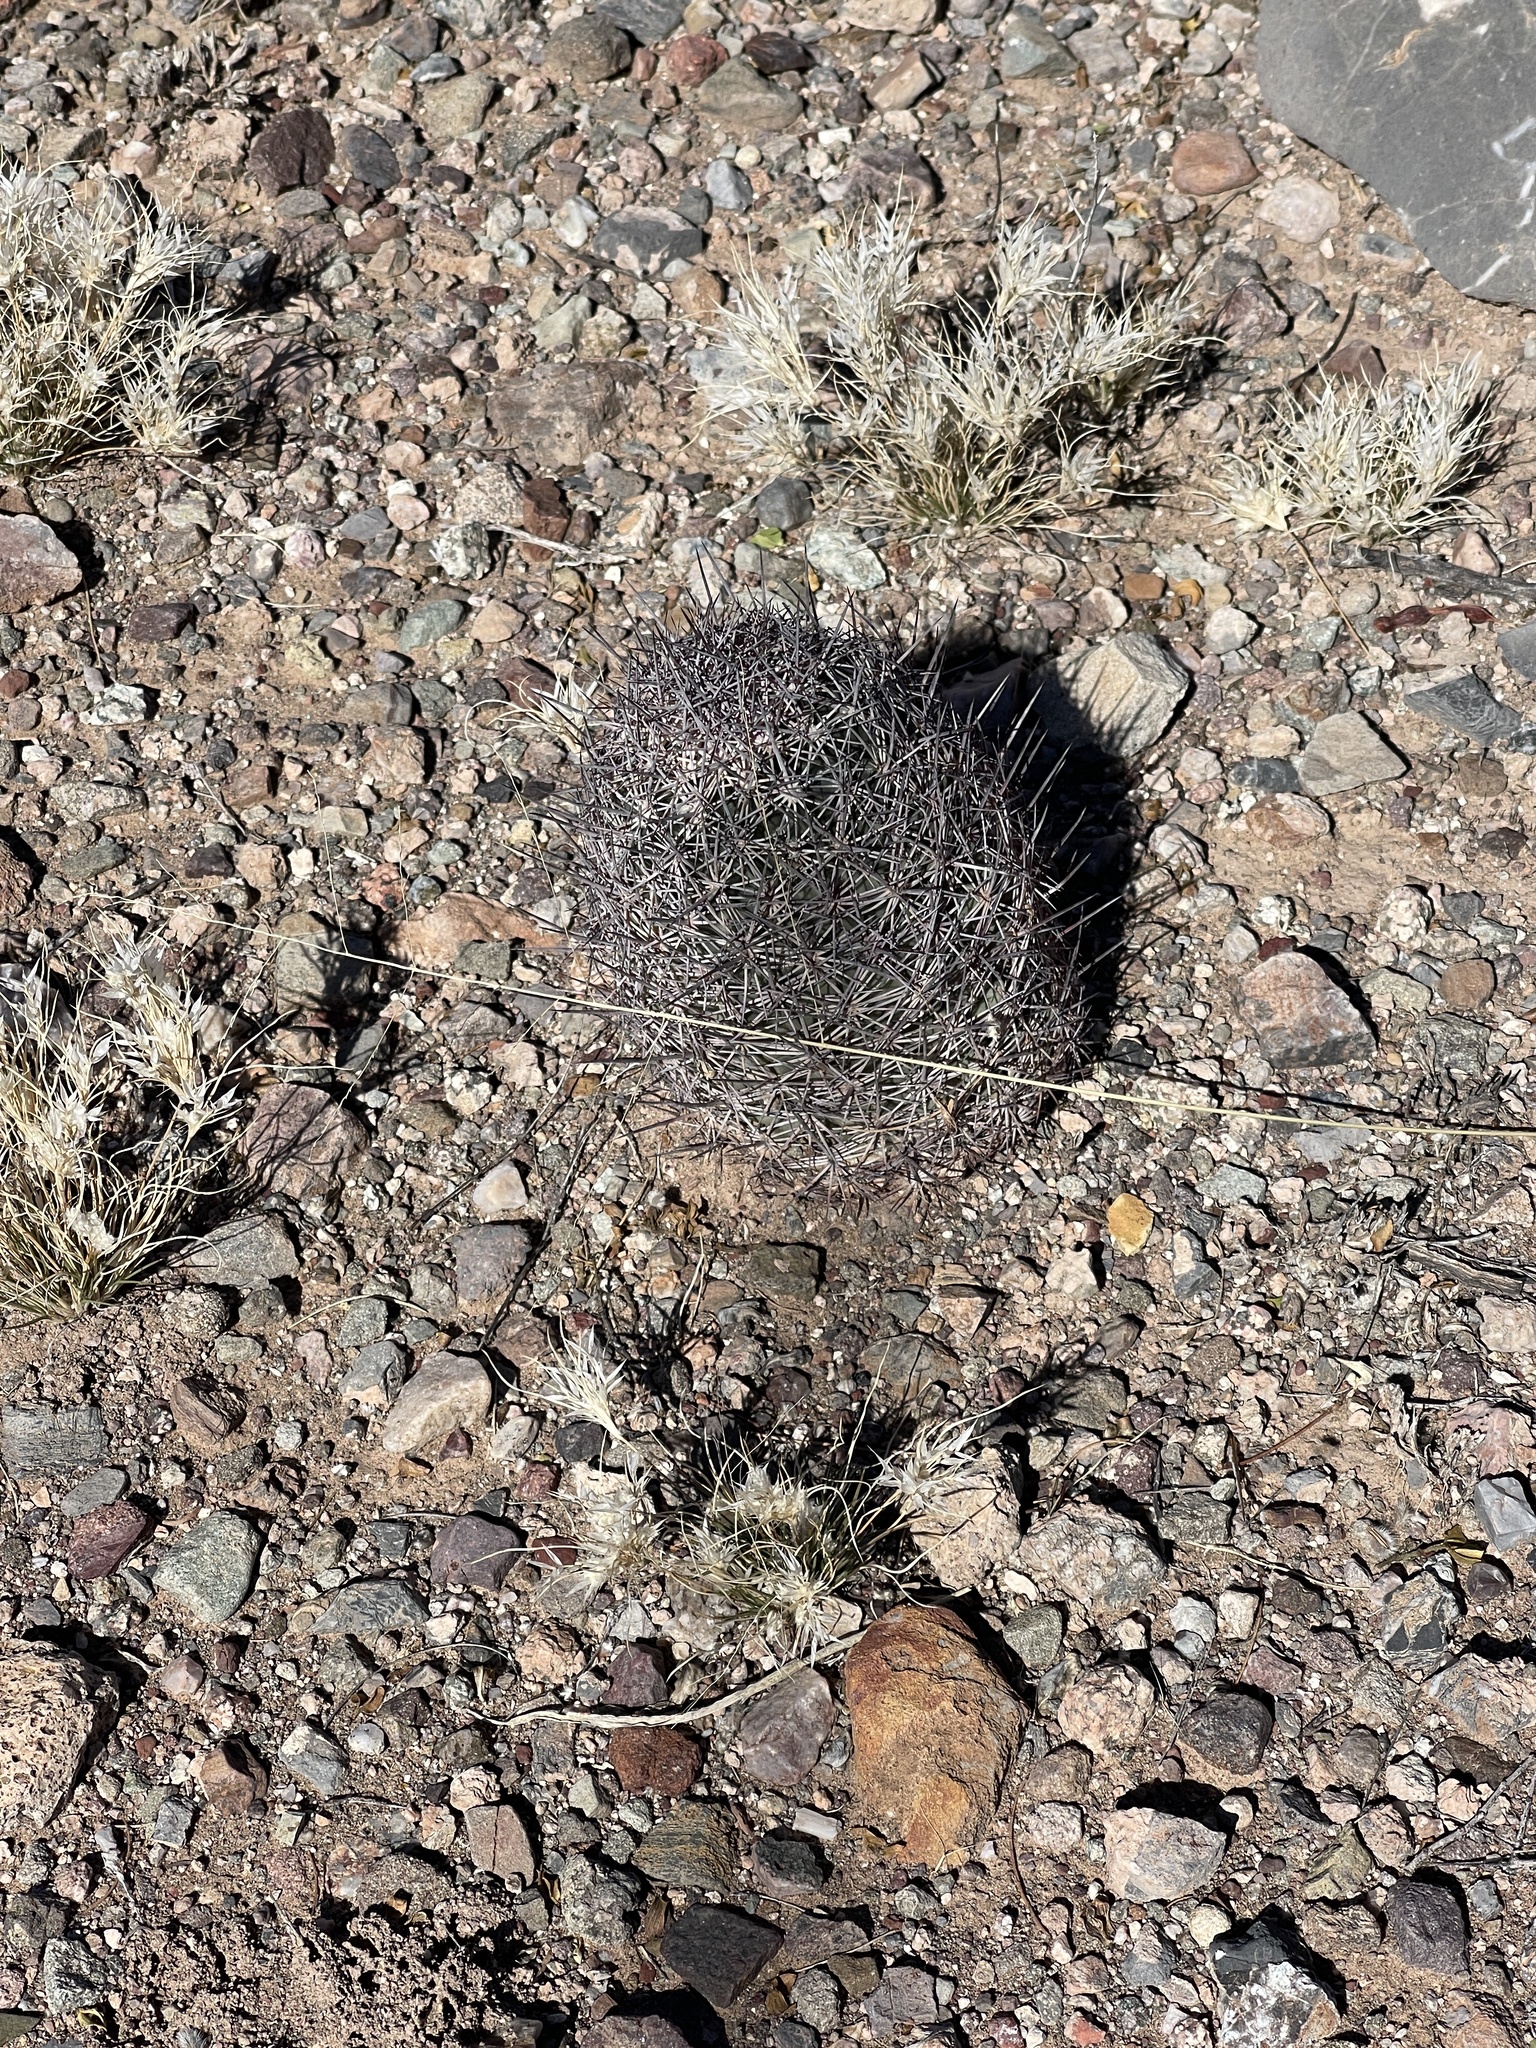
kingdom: Plantae
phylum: Tracheophyta
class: Magnoliopsida
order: Caryophyllales
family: Cactaceae
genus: Sclerocactus
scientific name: Sclerocactus johnsonii
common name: Eight-spine fishhook cactus
